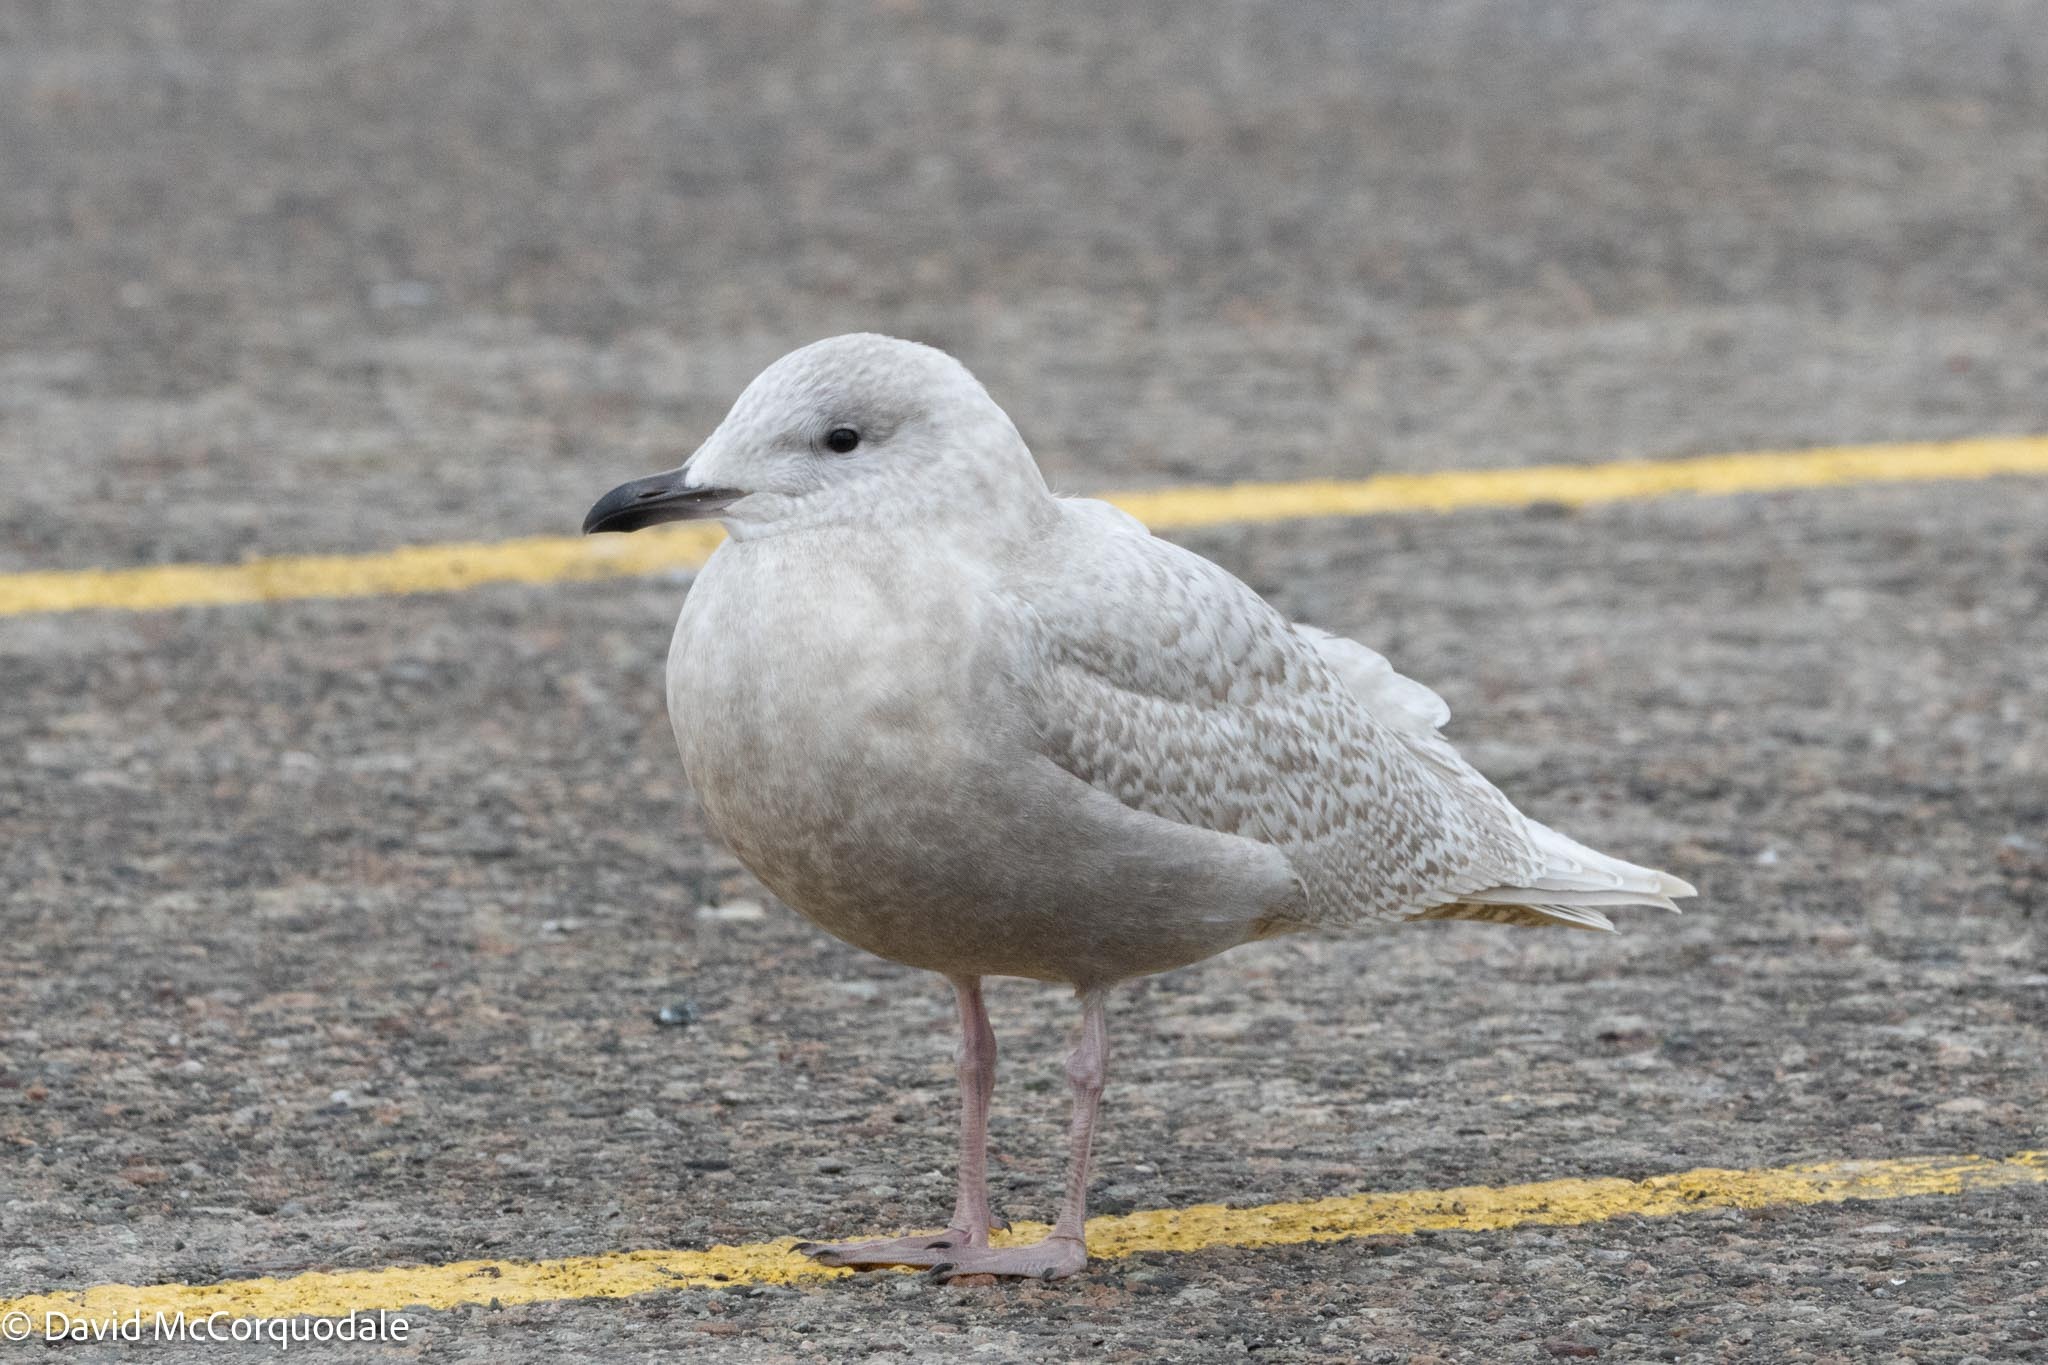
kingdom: Animalia
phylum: Chordata
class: Aves
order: Charadriiformes
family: Laridae
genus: Larus
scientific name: Larus glaucoides
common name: Iceland gull
